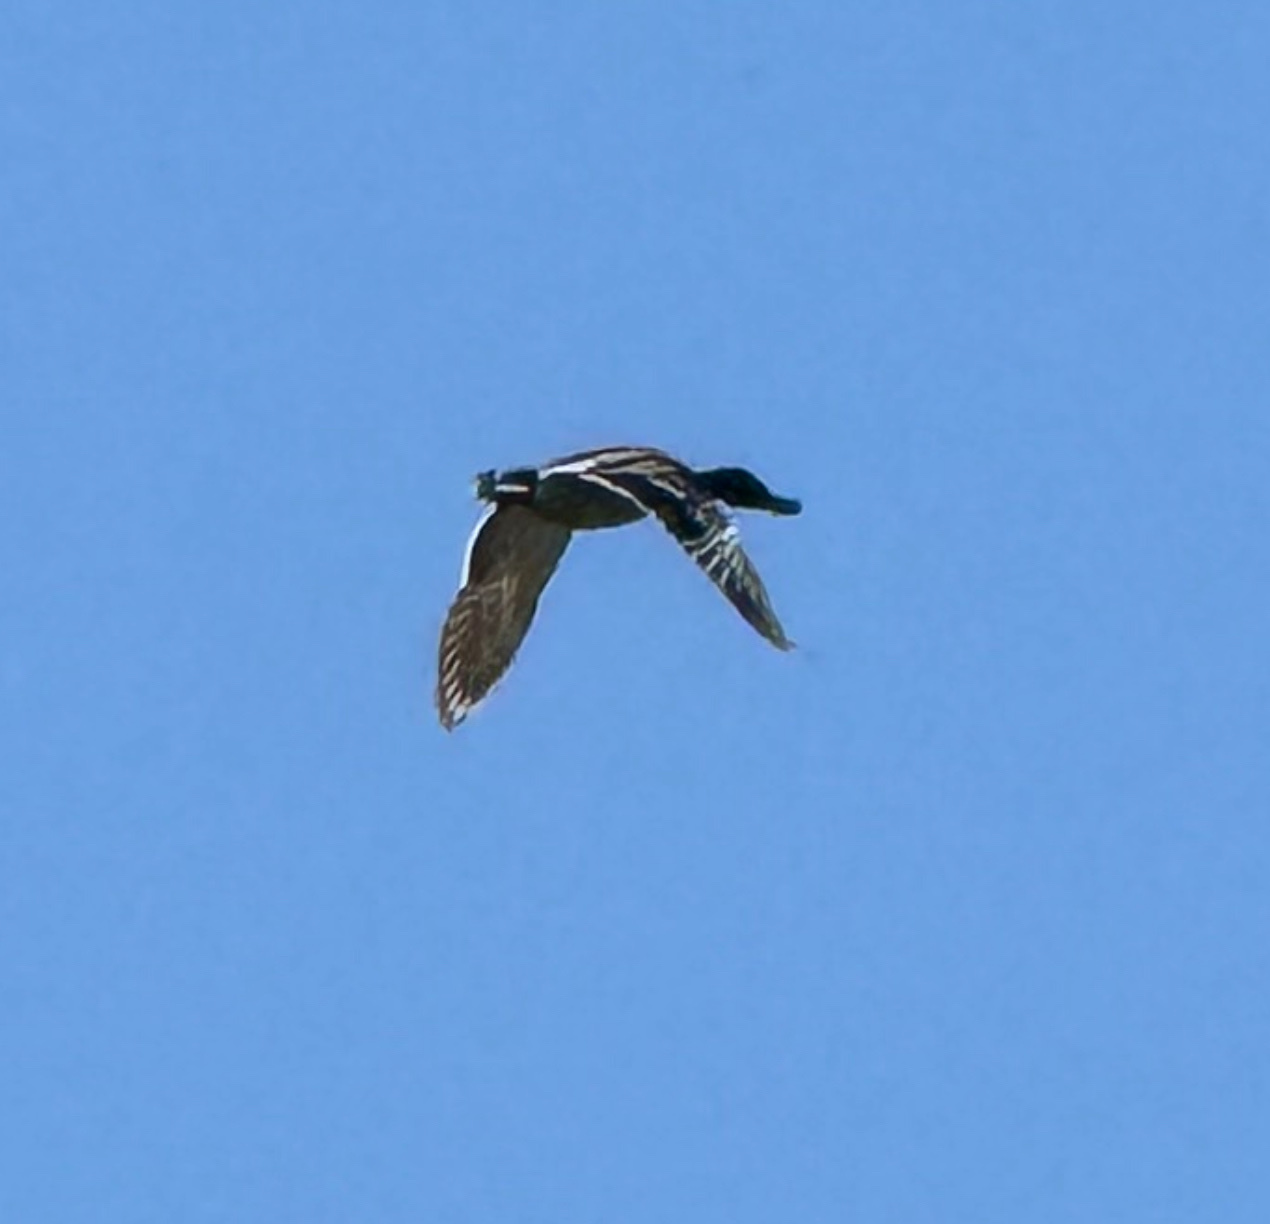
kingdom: Animalia
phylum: Chordata
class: Aves
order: Anseriformes
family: Anatidae
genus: Anas
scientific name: Anas platyrhynchos
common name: Mallard
